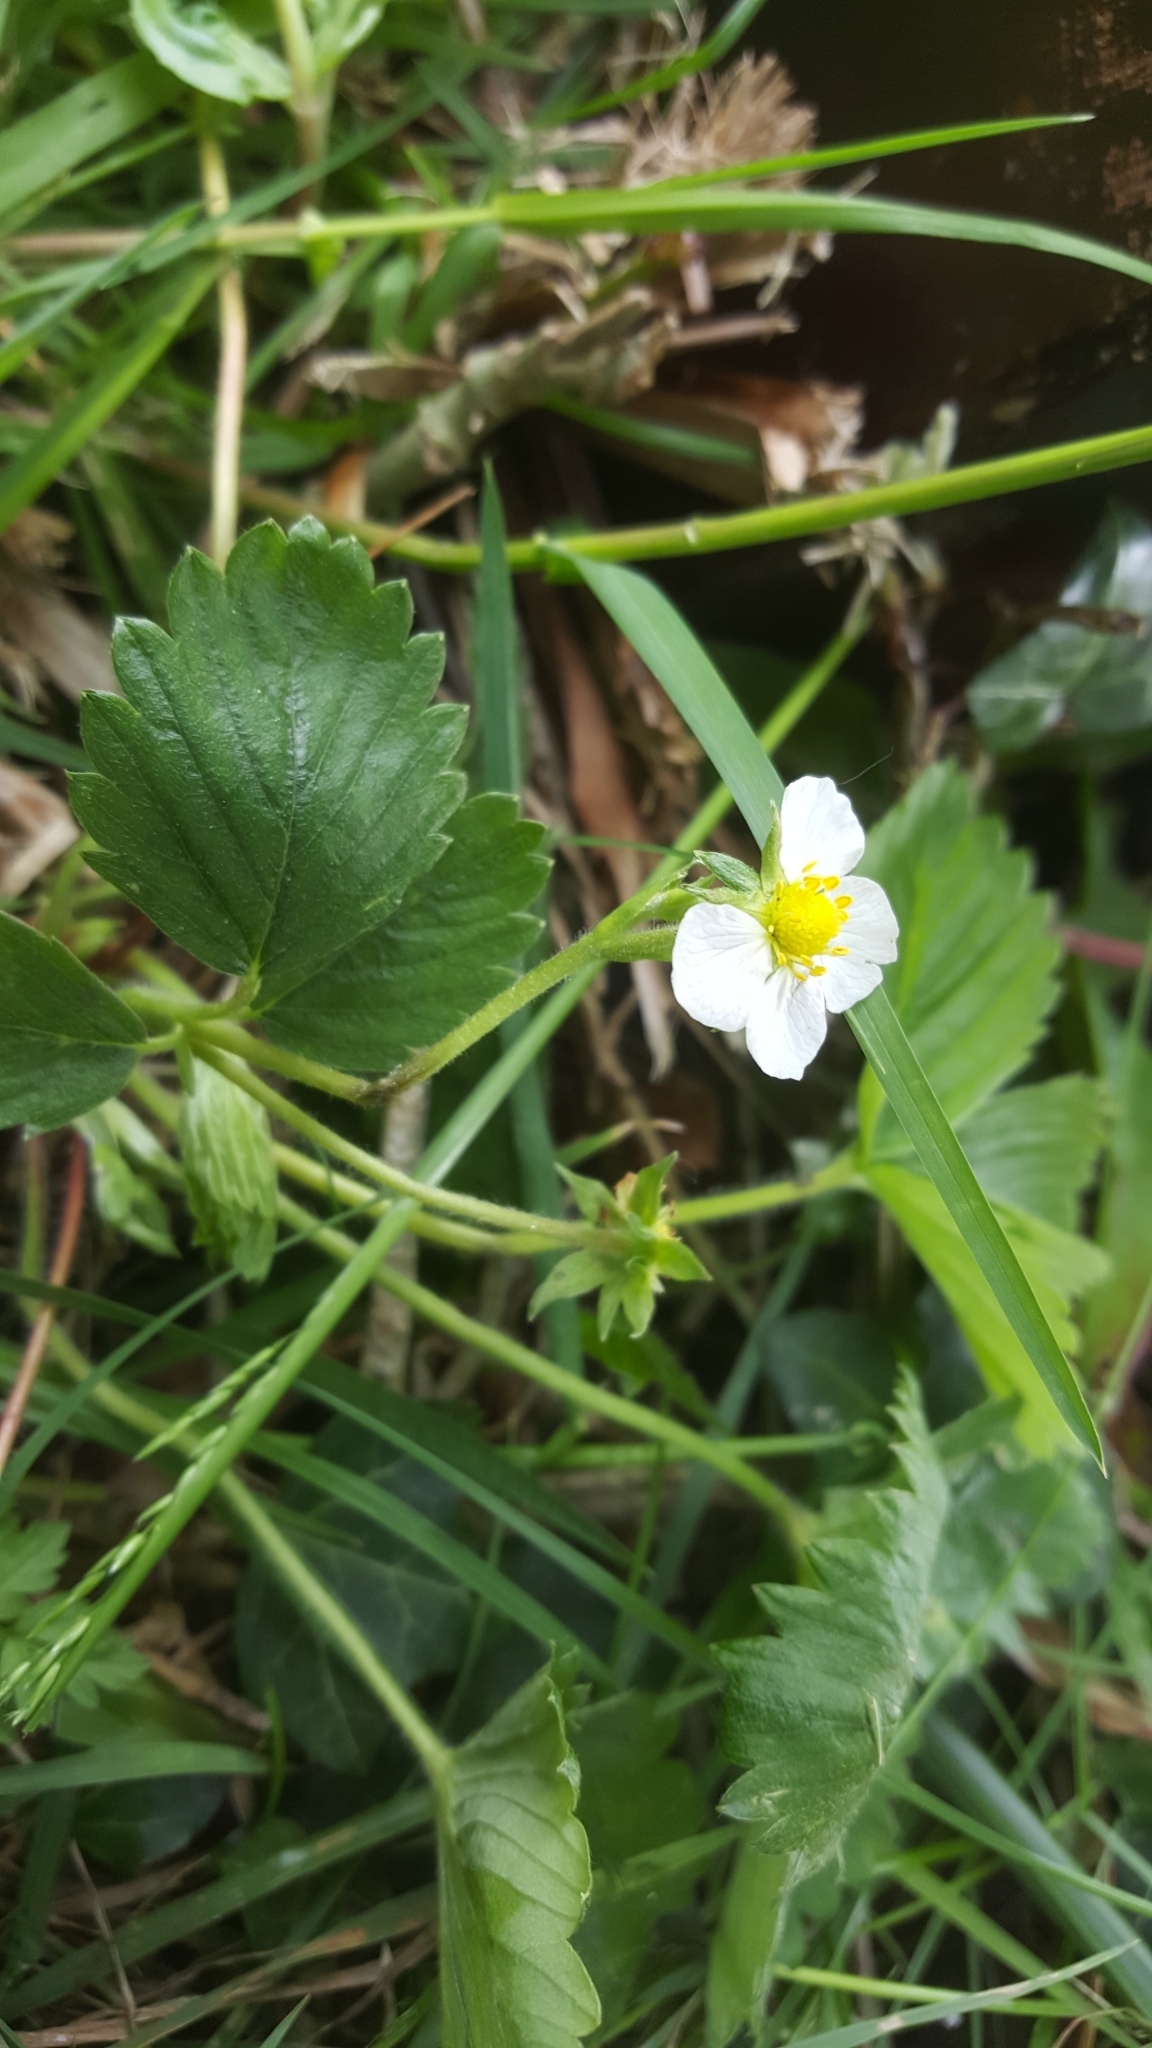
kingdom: Plantae
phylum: Tracheophyta
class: Magnoliopsida
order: Rosales
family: Rosaceae
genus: Fragaria
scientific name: Fragaria vesca
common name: Wild strawberry
